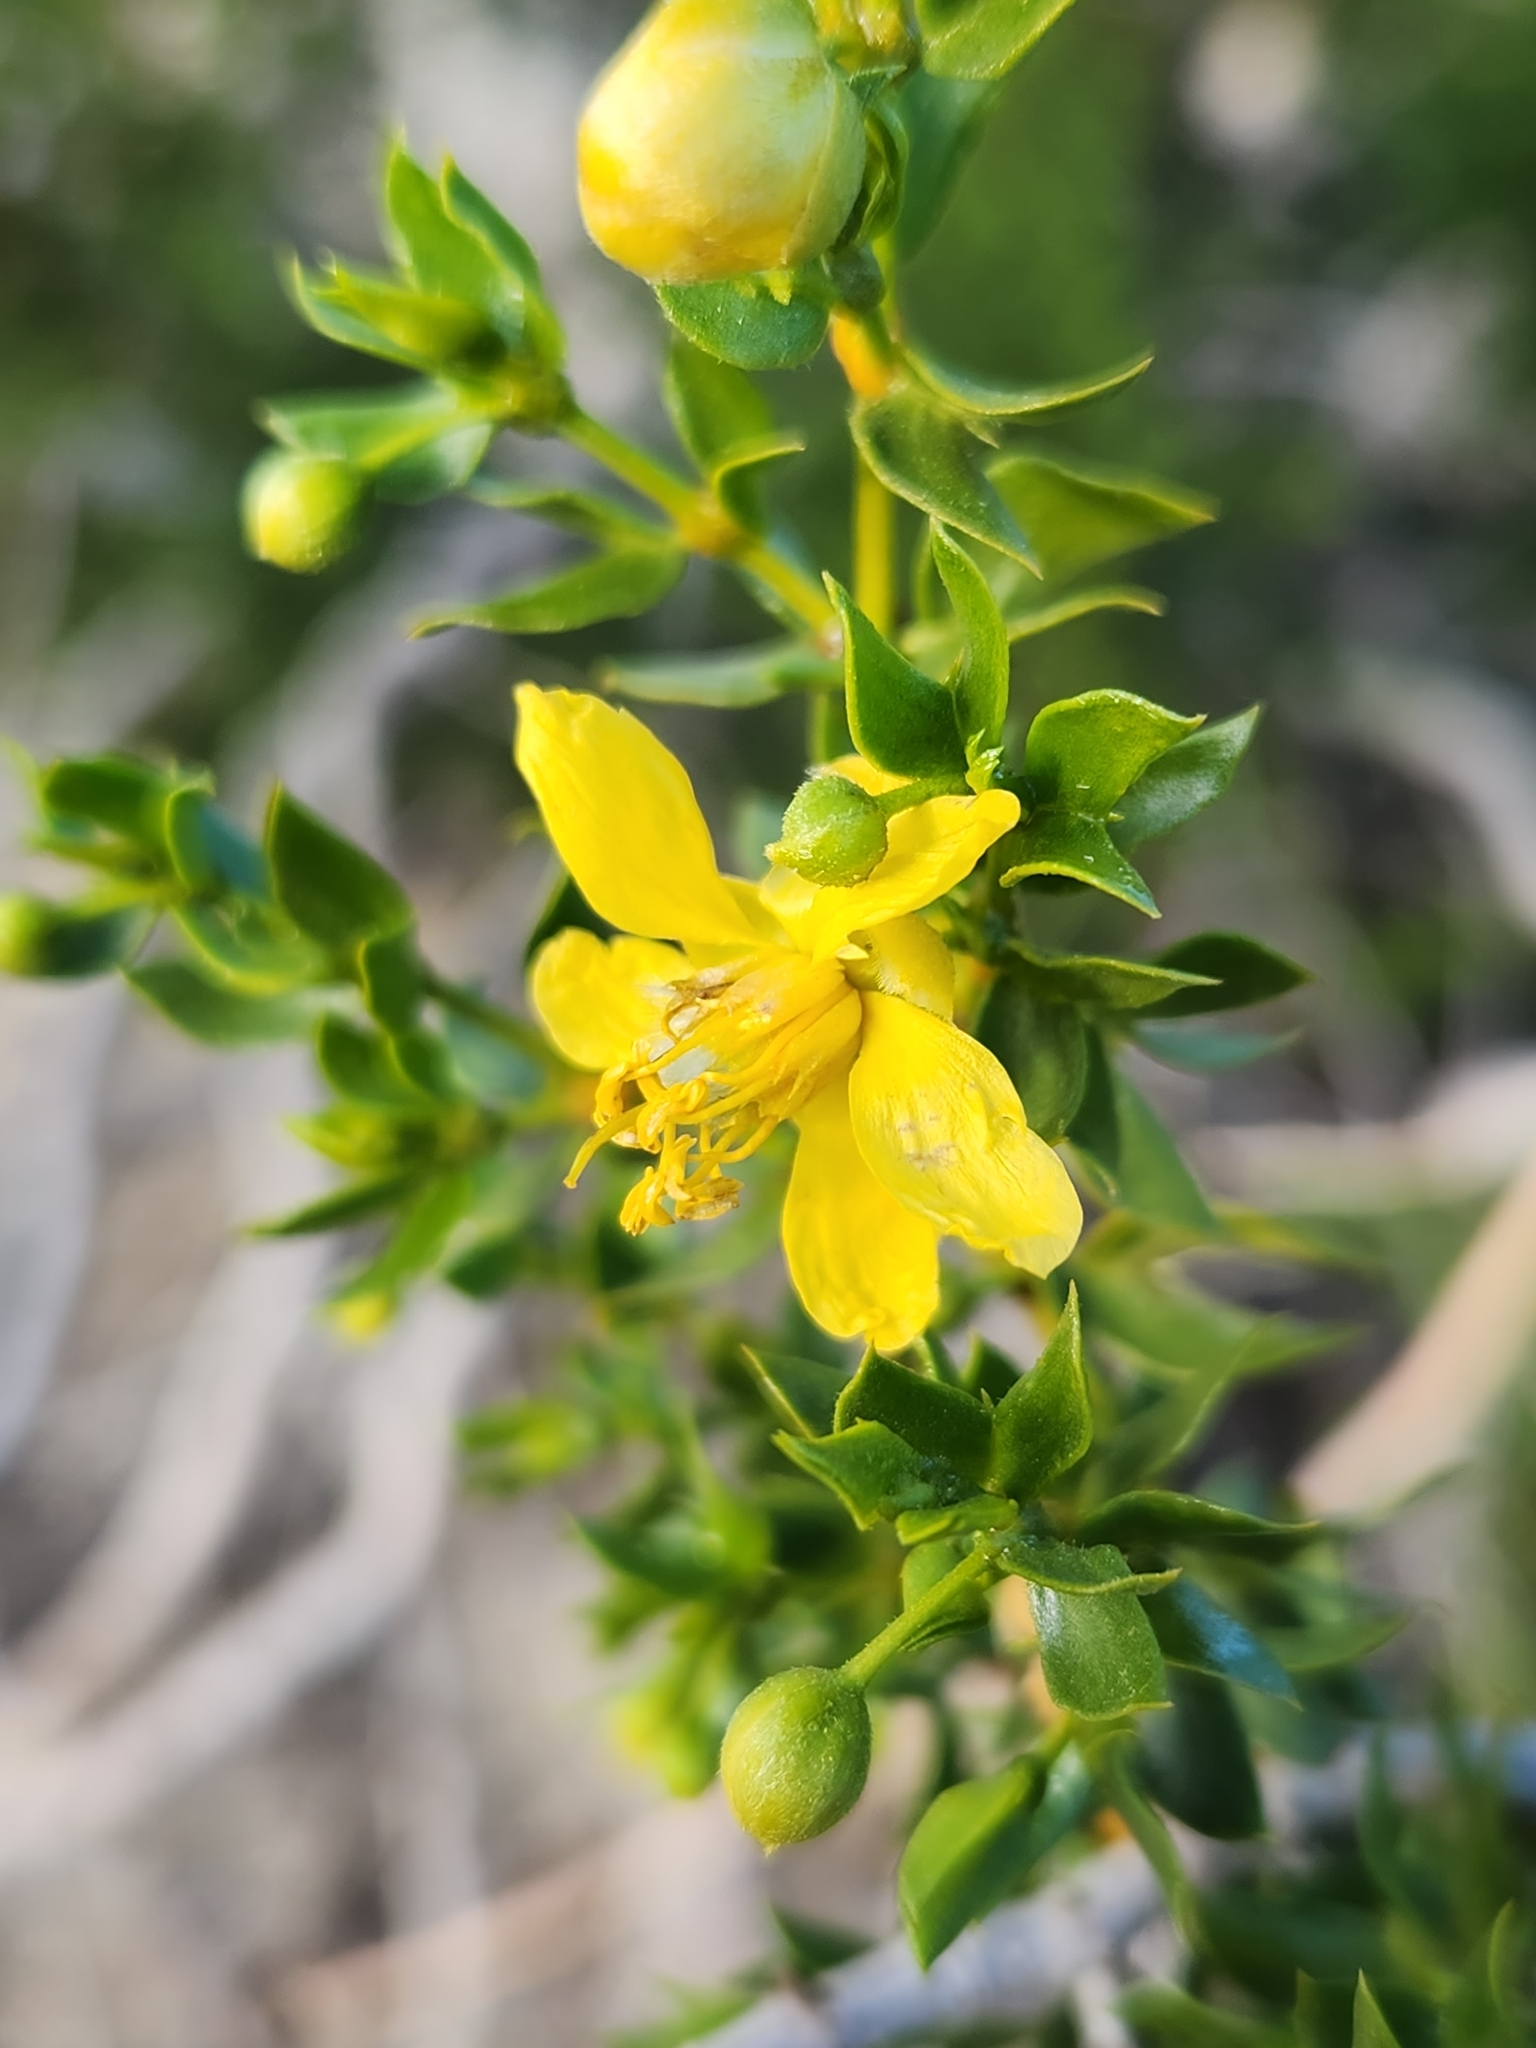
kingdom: Plantae
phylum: Tracheophyta
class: Magnoliopsida
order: Zygophyllales
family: Zygophyllaceae
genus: Larrea
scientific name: Larrea tridentata
